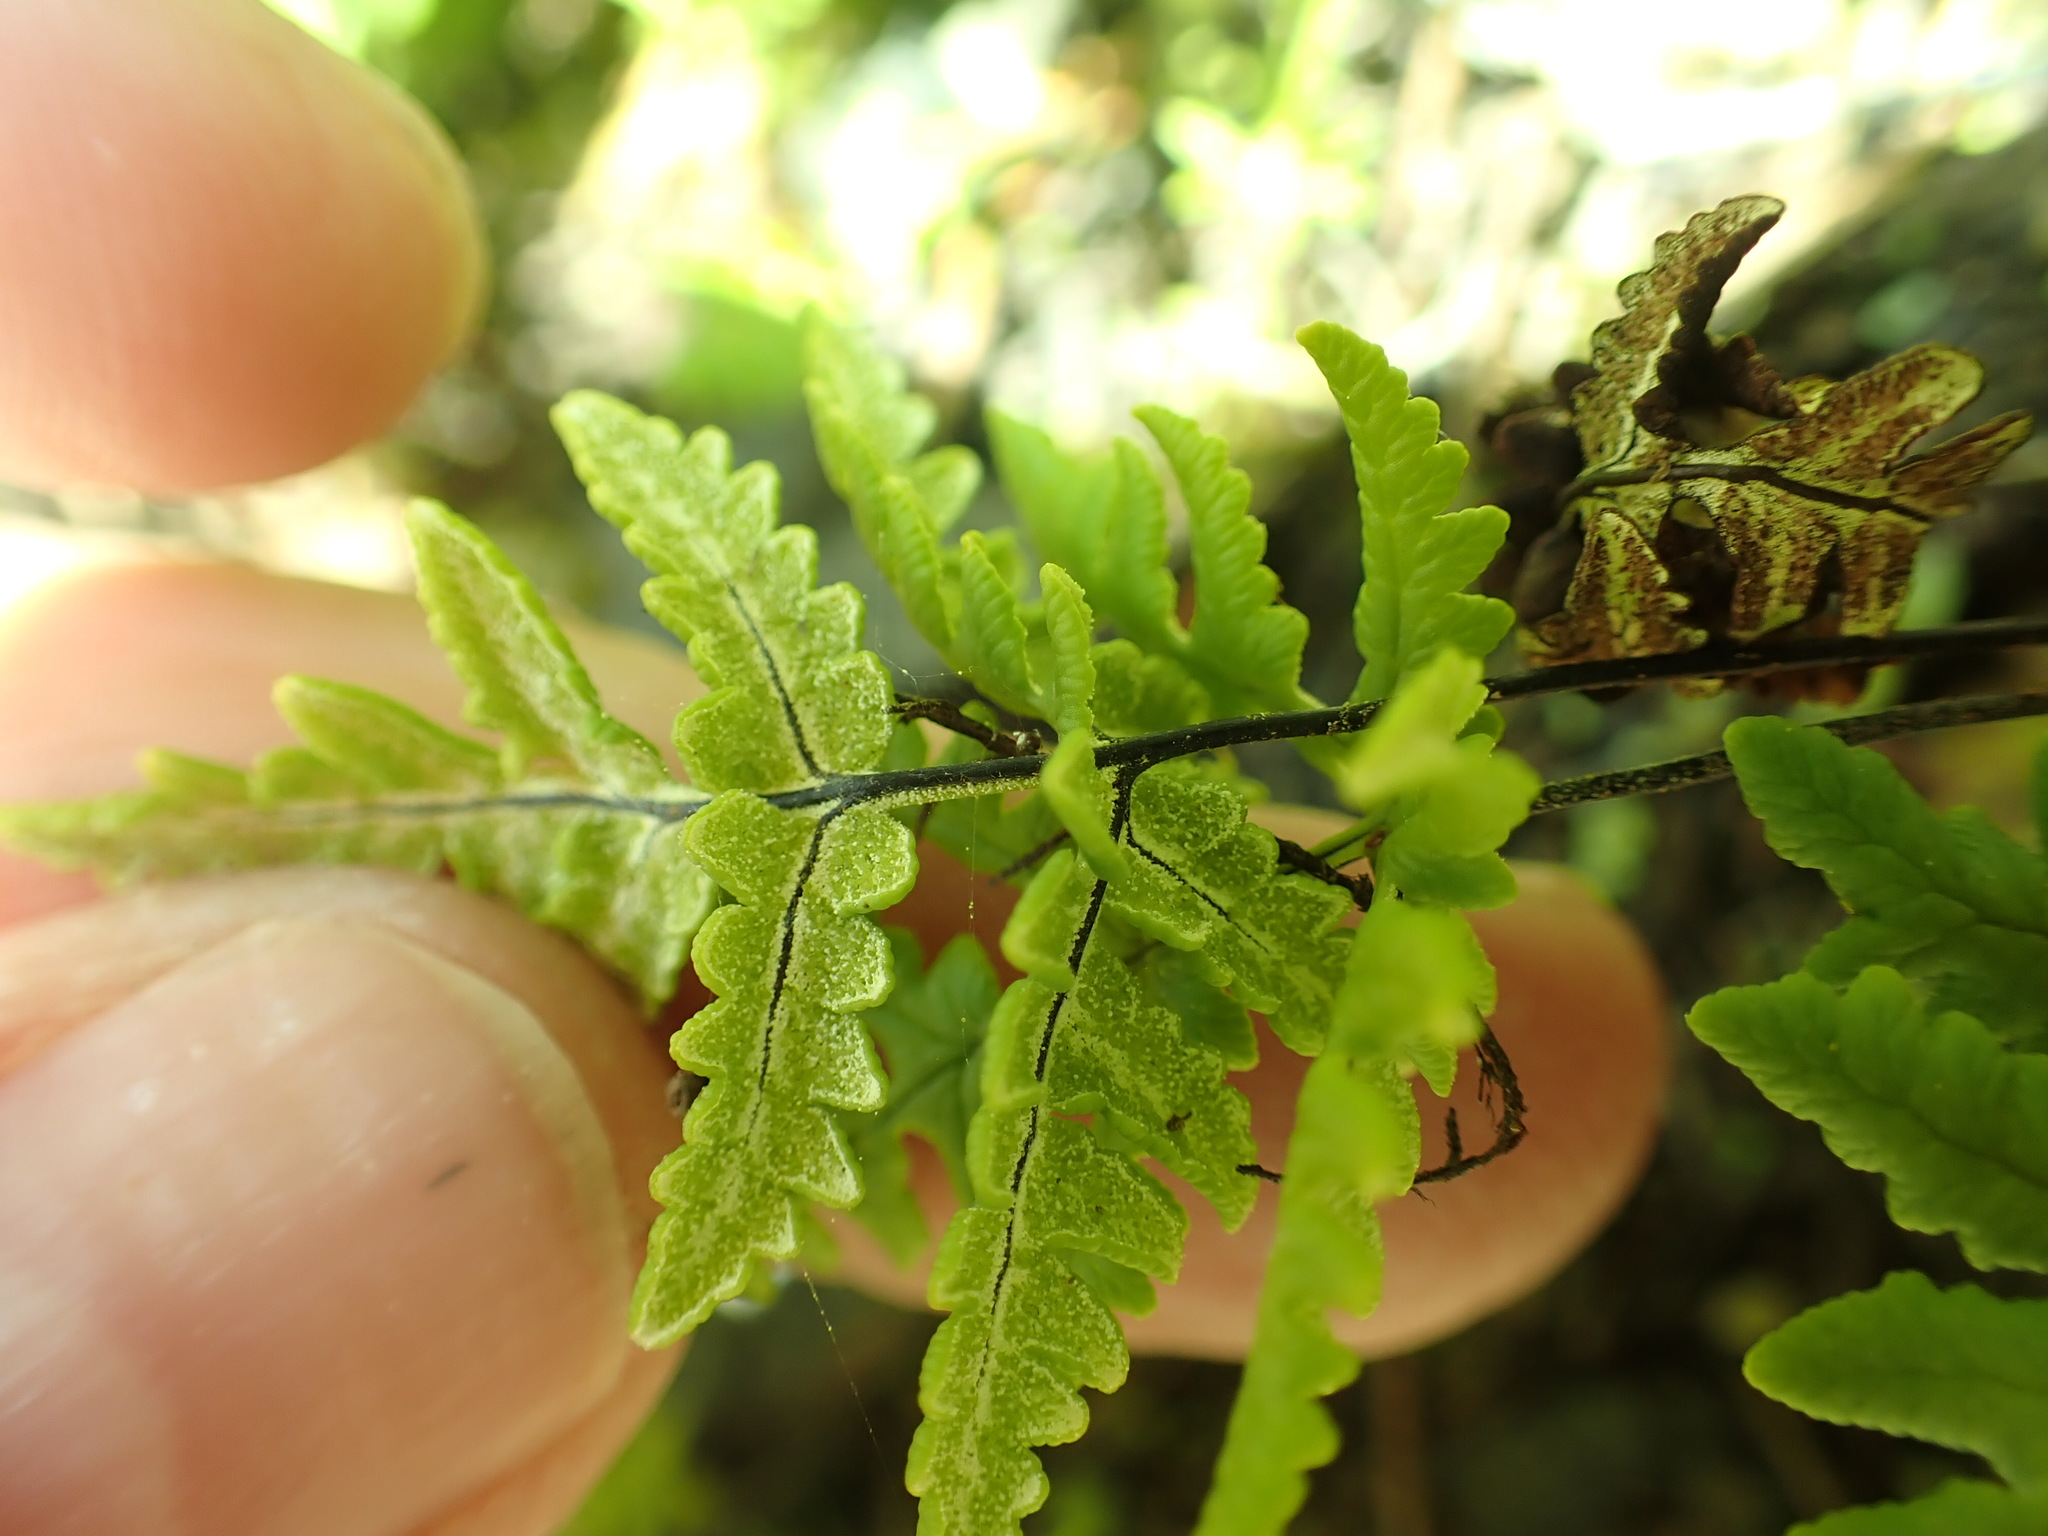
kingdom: Plantae
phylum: Tracheophyta
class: Polypodiopsida
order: Polypodiales
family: Pteridaceae
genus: Pentagramma
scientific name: Pentagramma triangularis
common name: Gold fern
